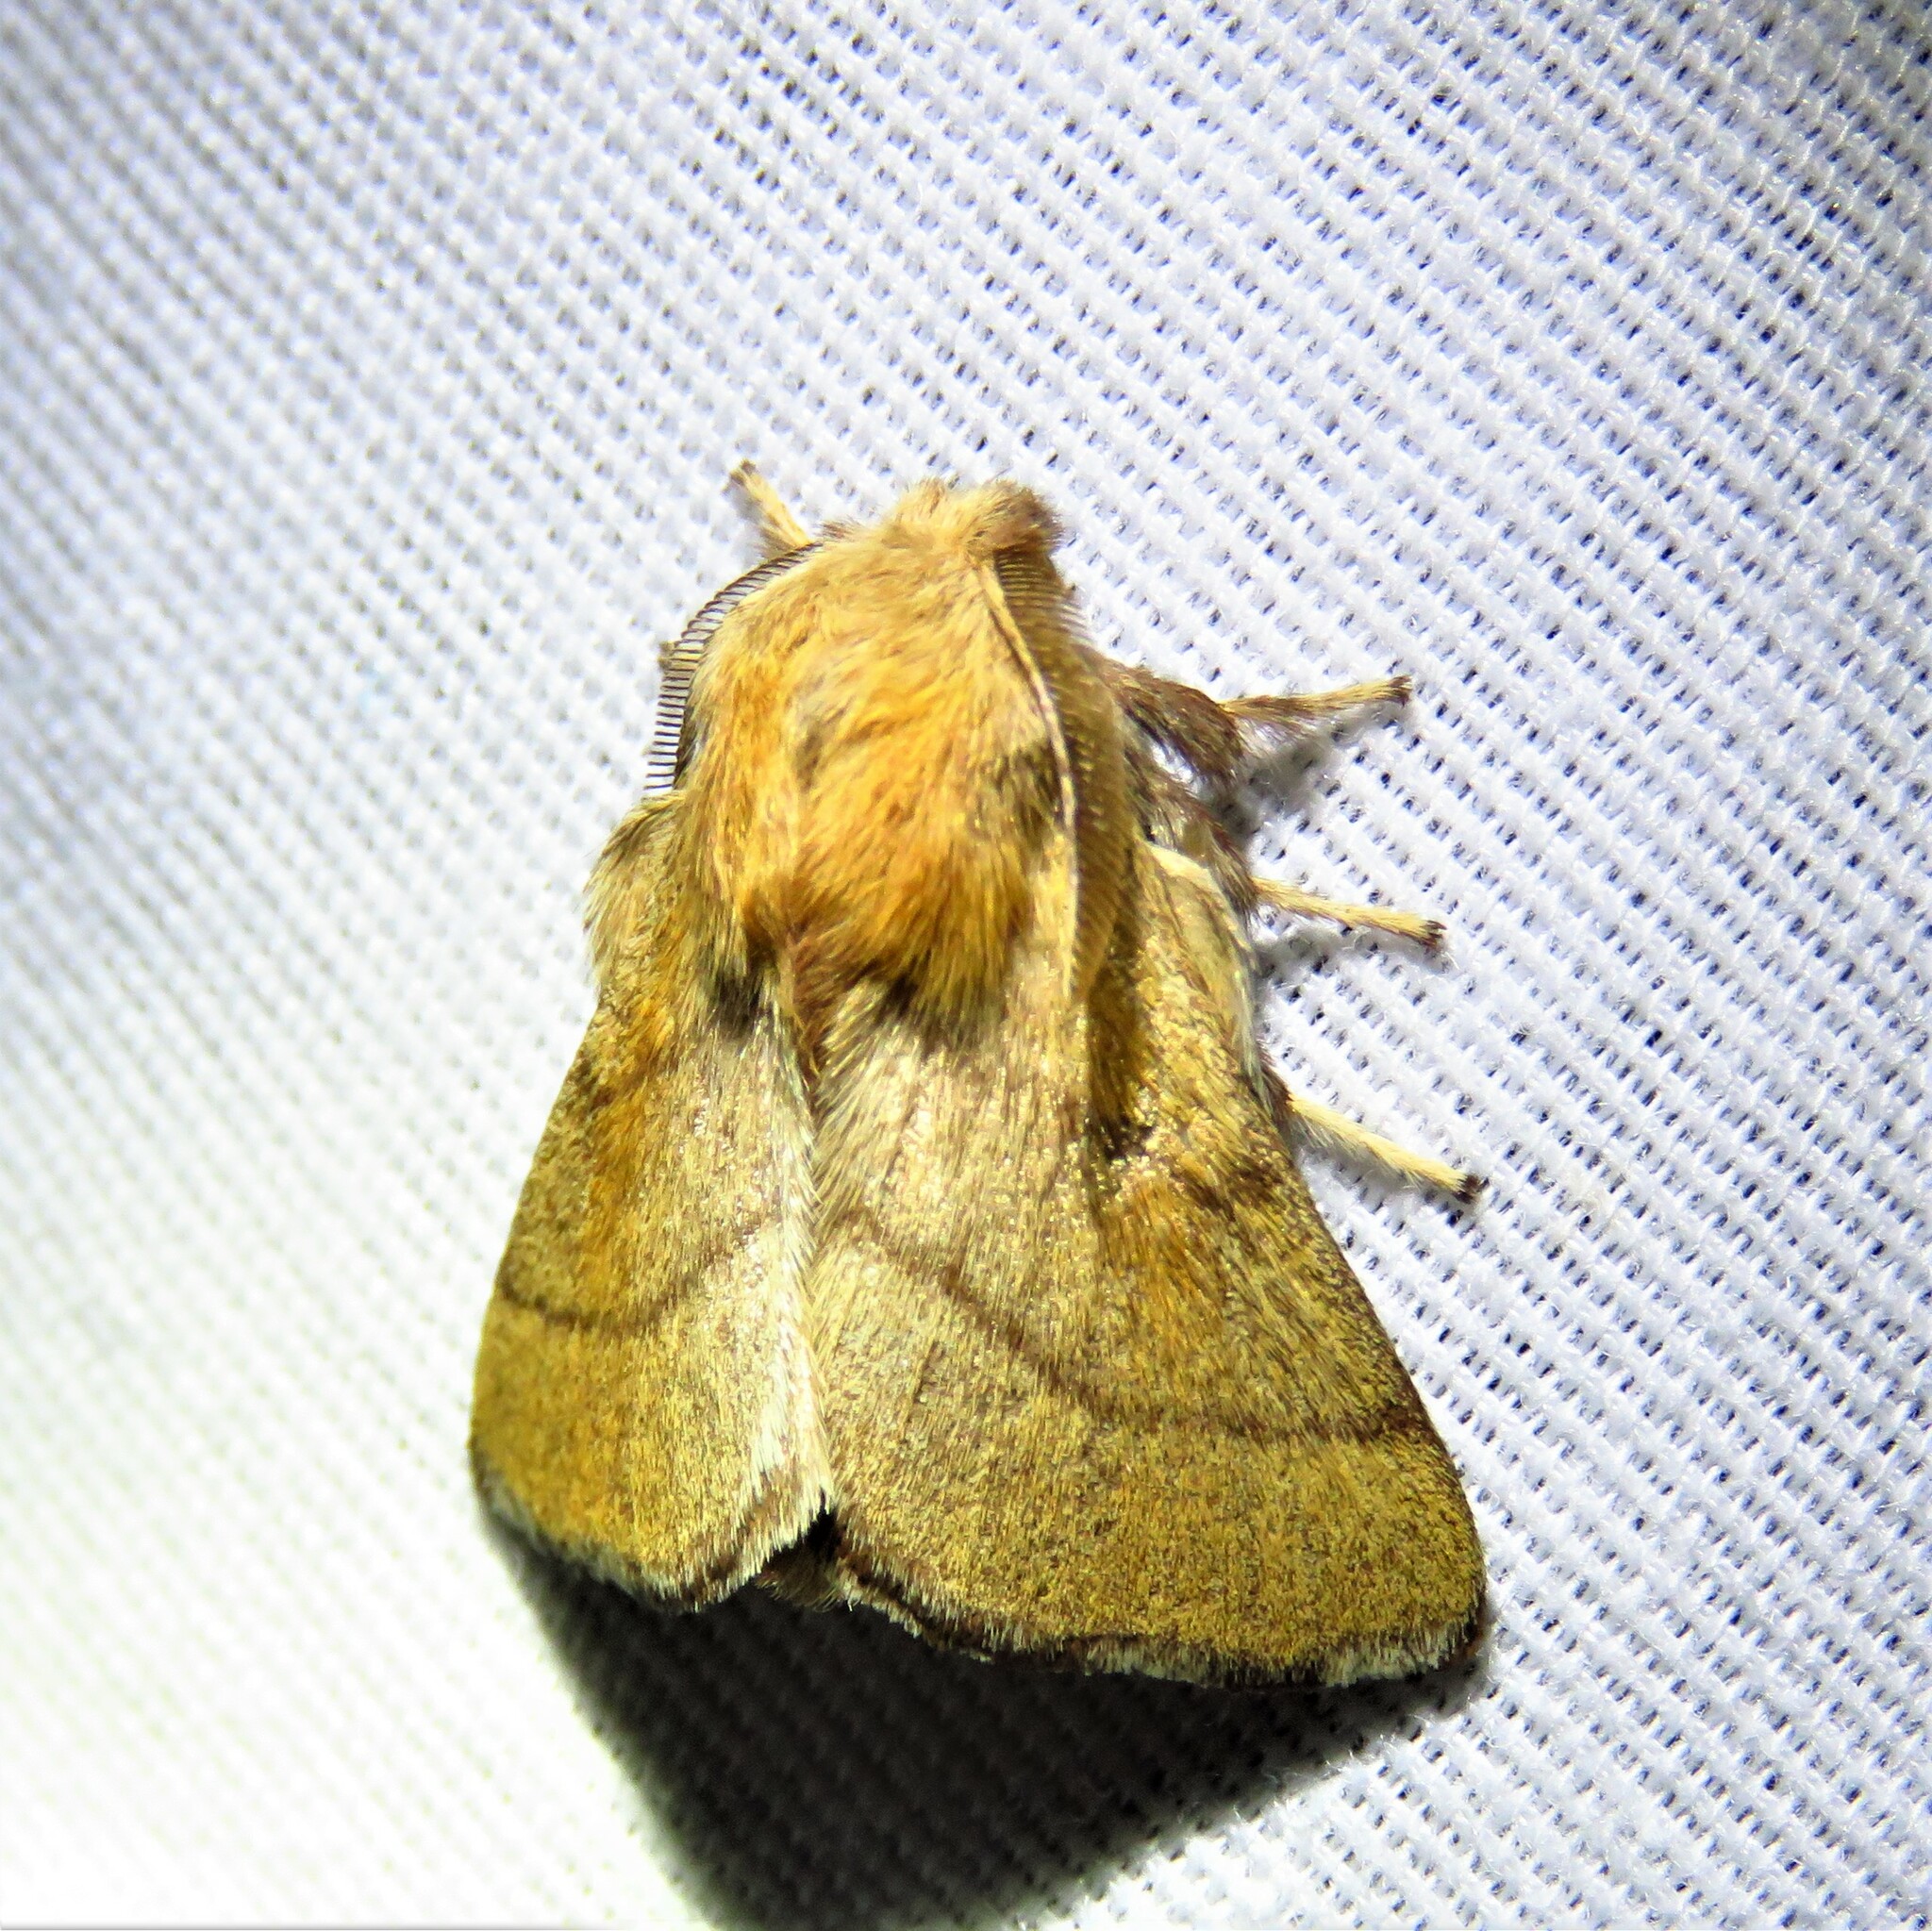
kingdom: Animalia
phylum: Arthropoda
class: Insecta
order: Lepidoptera
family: Lasiocampidae
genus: Malacosoma
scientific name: Malacosoma disstria
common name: Forest tent caterpillar
